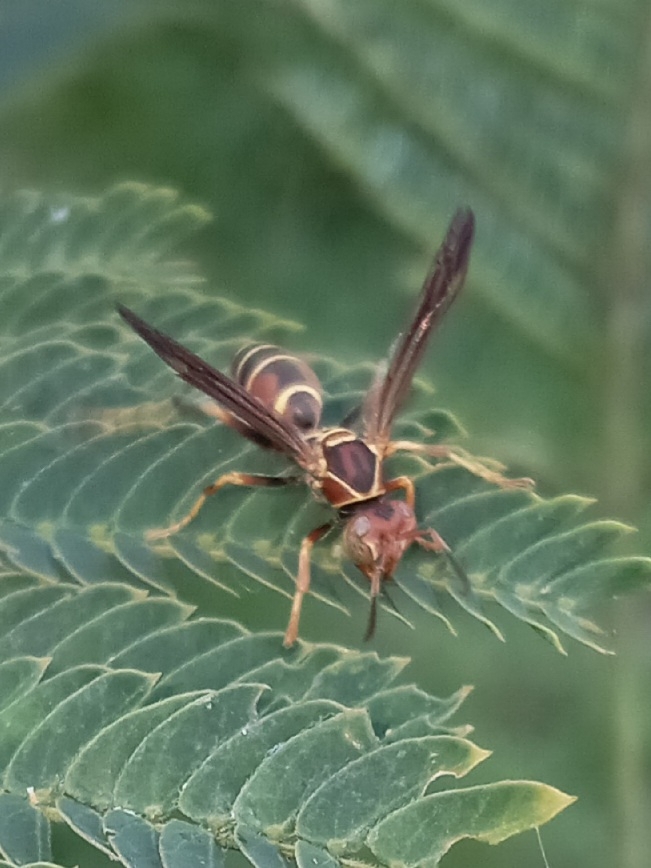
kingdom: Animalia
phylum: Arthropoda
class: Insecta
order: Hymenoptera
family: Eumenidae
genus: Polistes
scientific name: Polistes dorsalis
